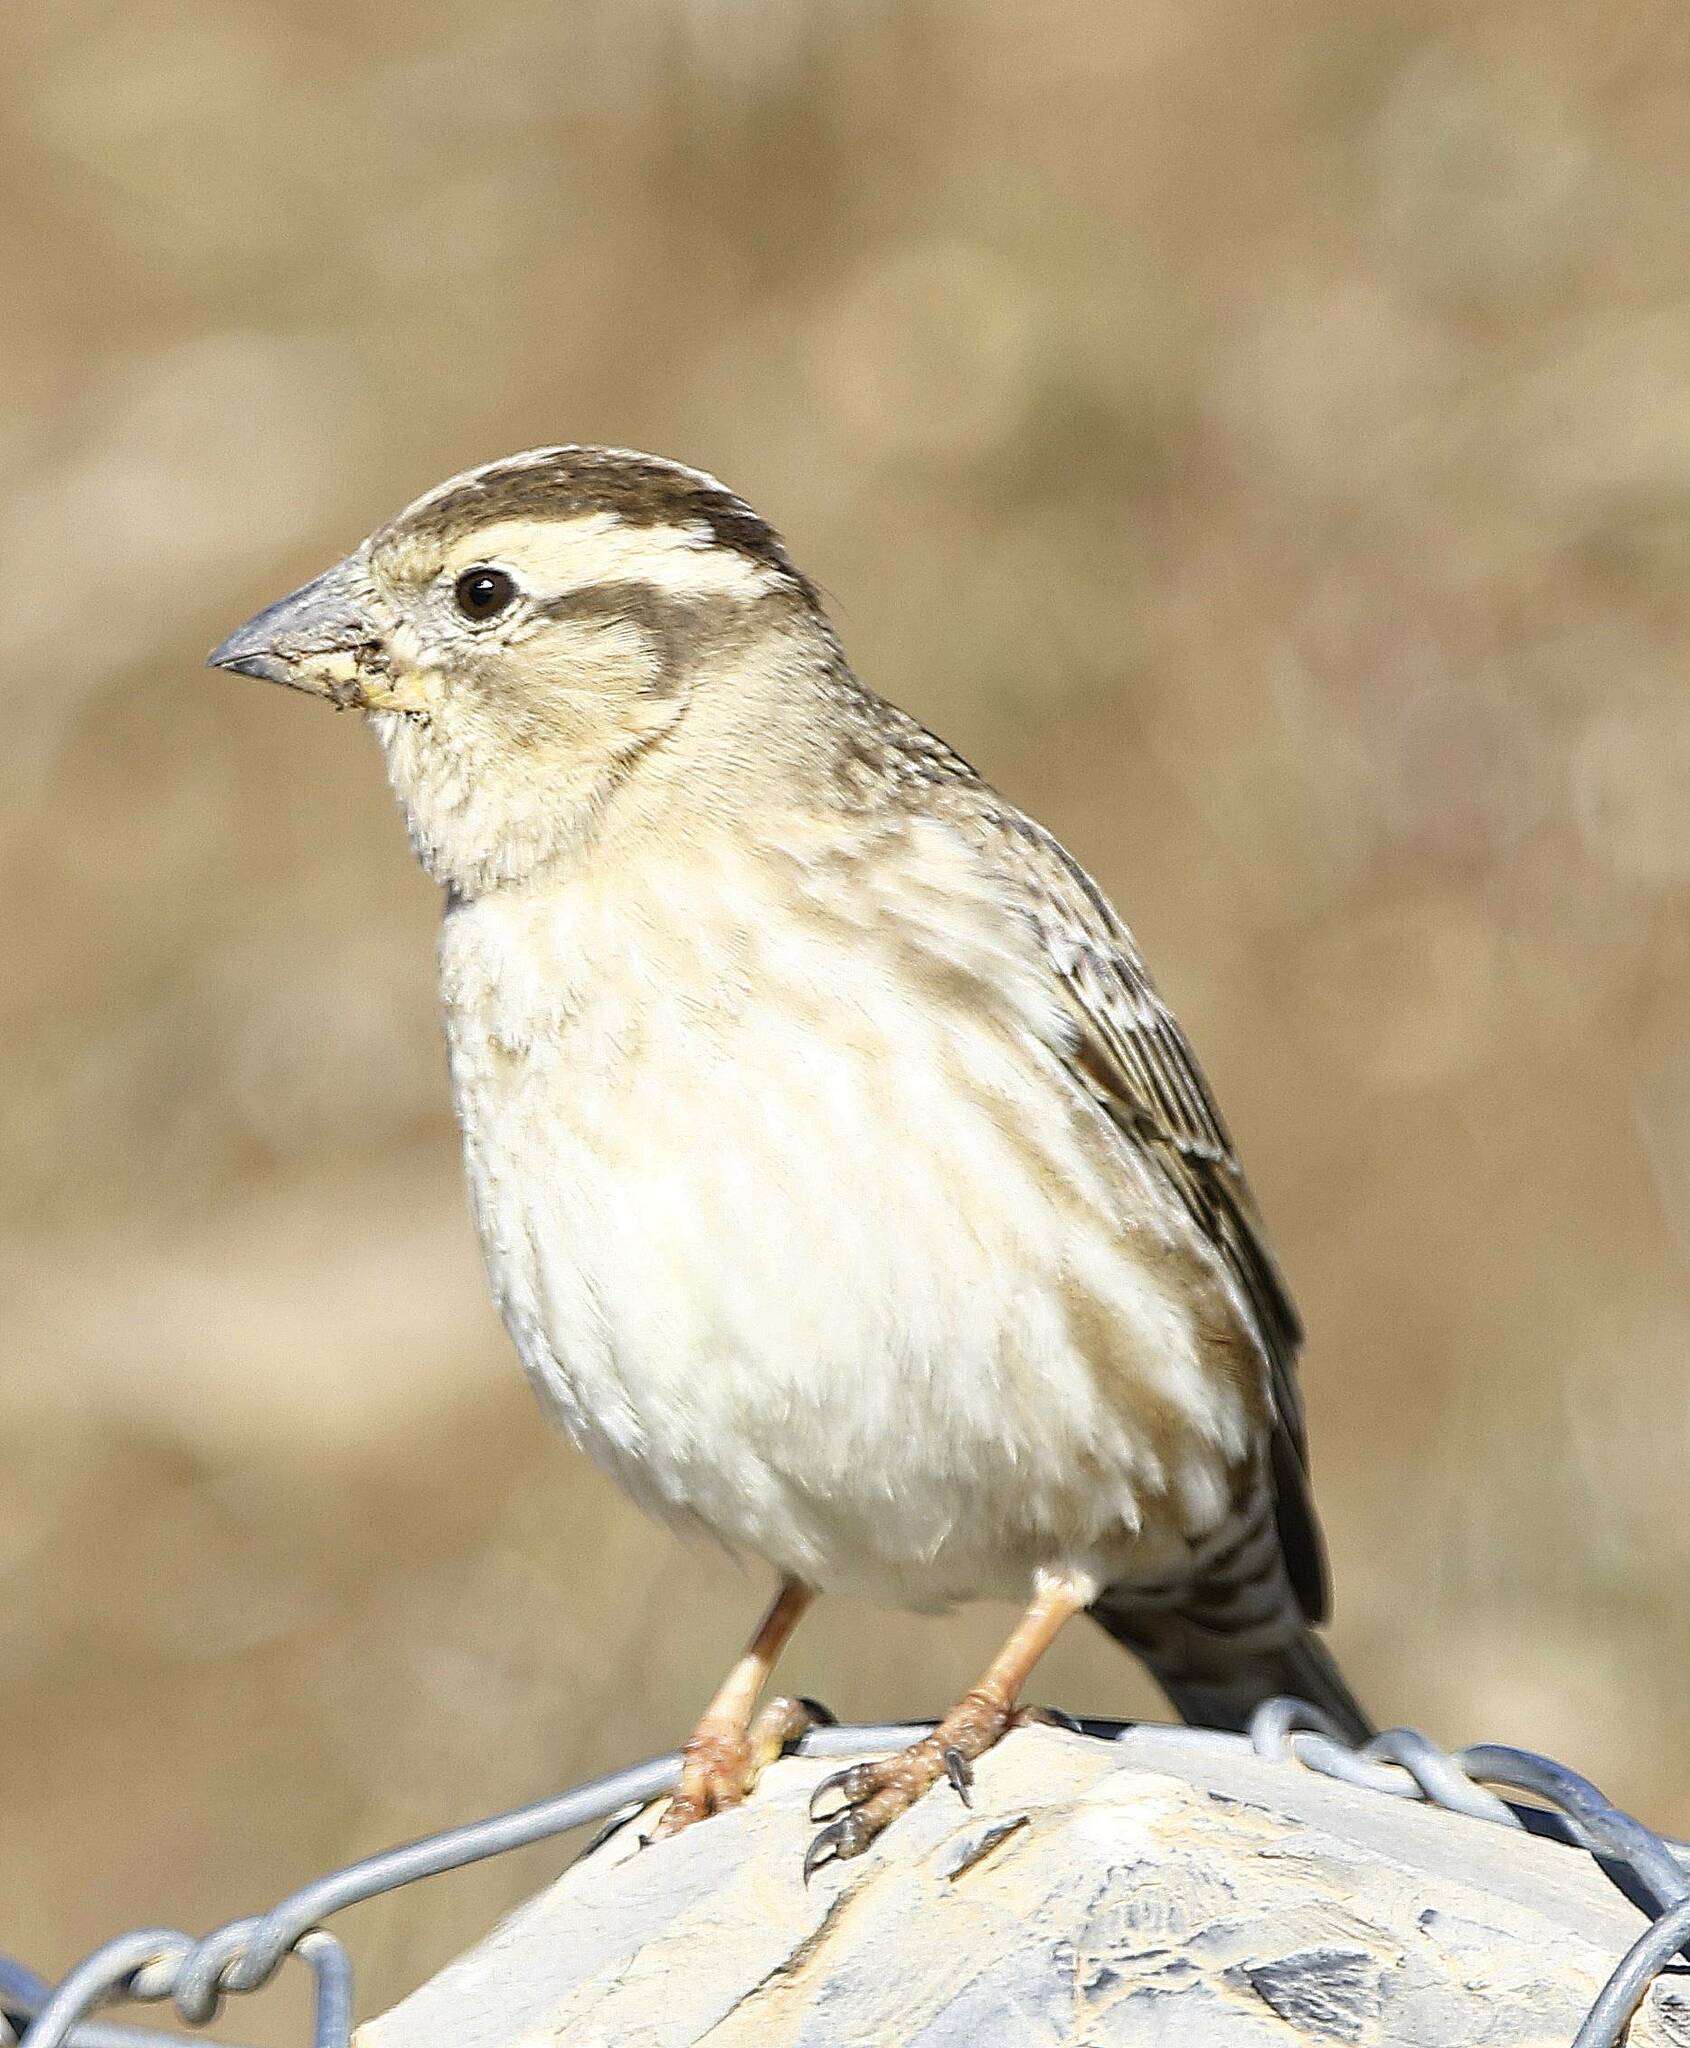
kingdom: Animalia
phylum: Chordata
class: Aves
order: Passeriformes
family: Passeridae
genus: Petronia
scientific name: Petronia petronia
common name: Rock sparrow
